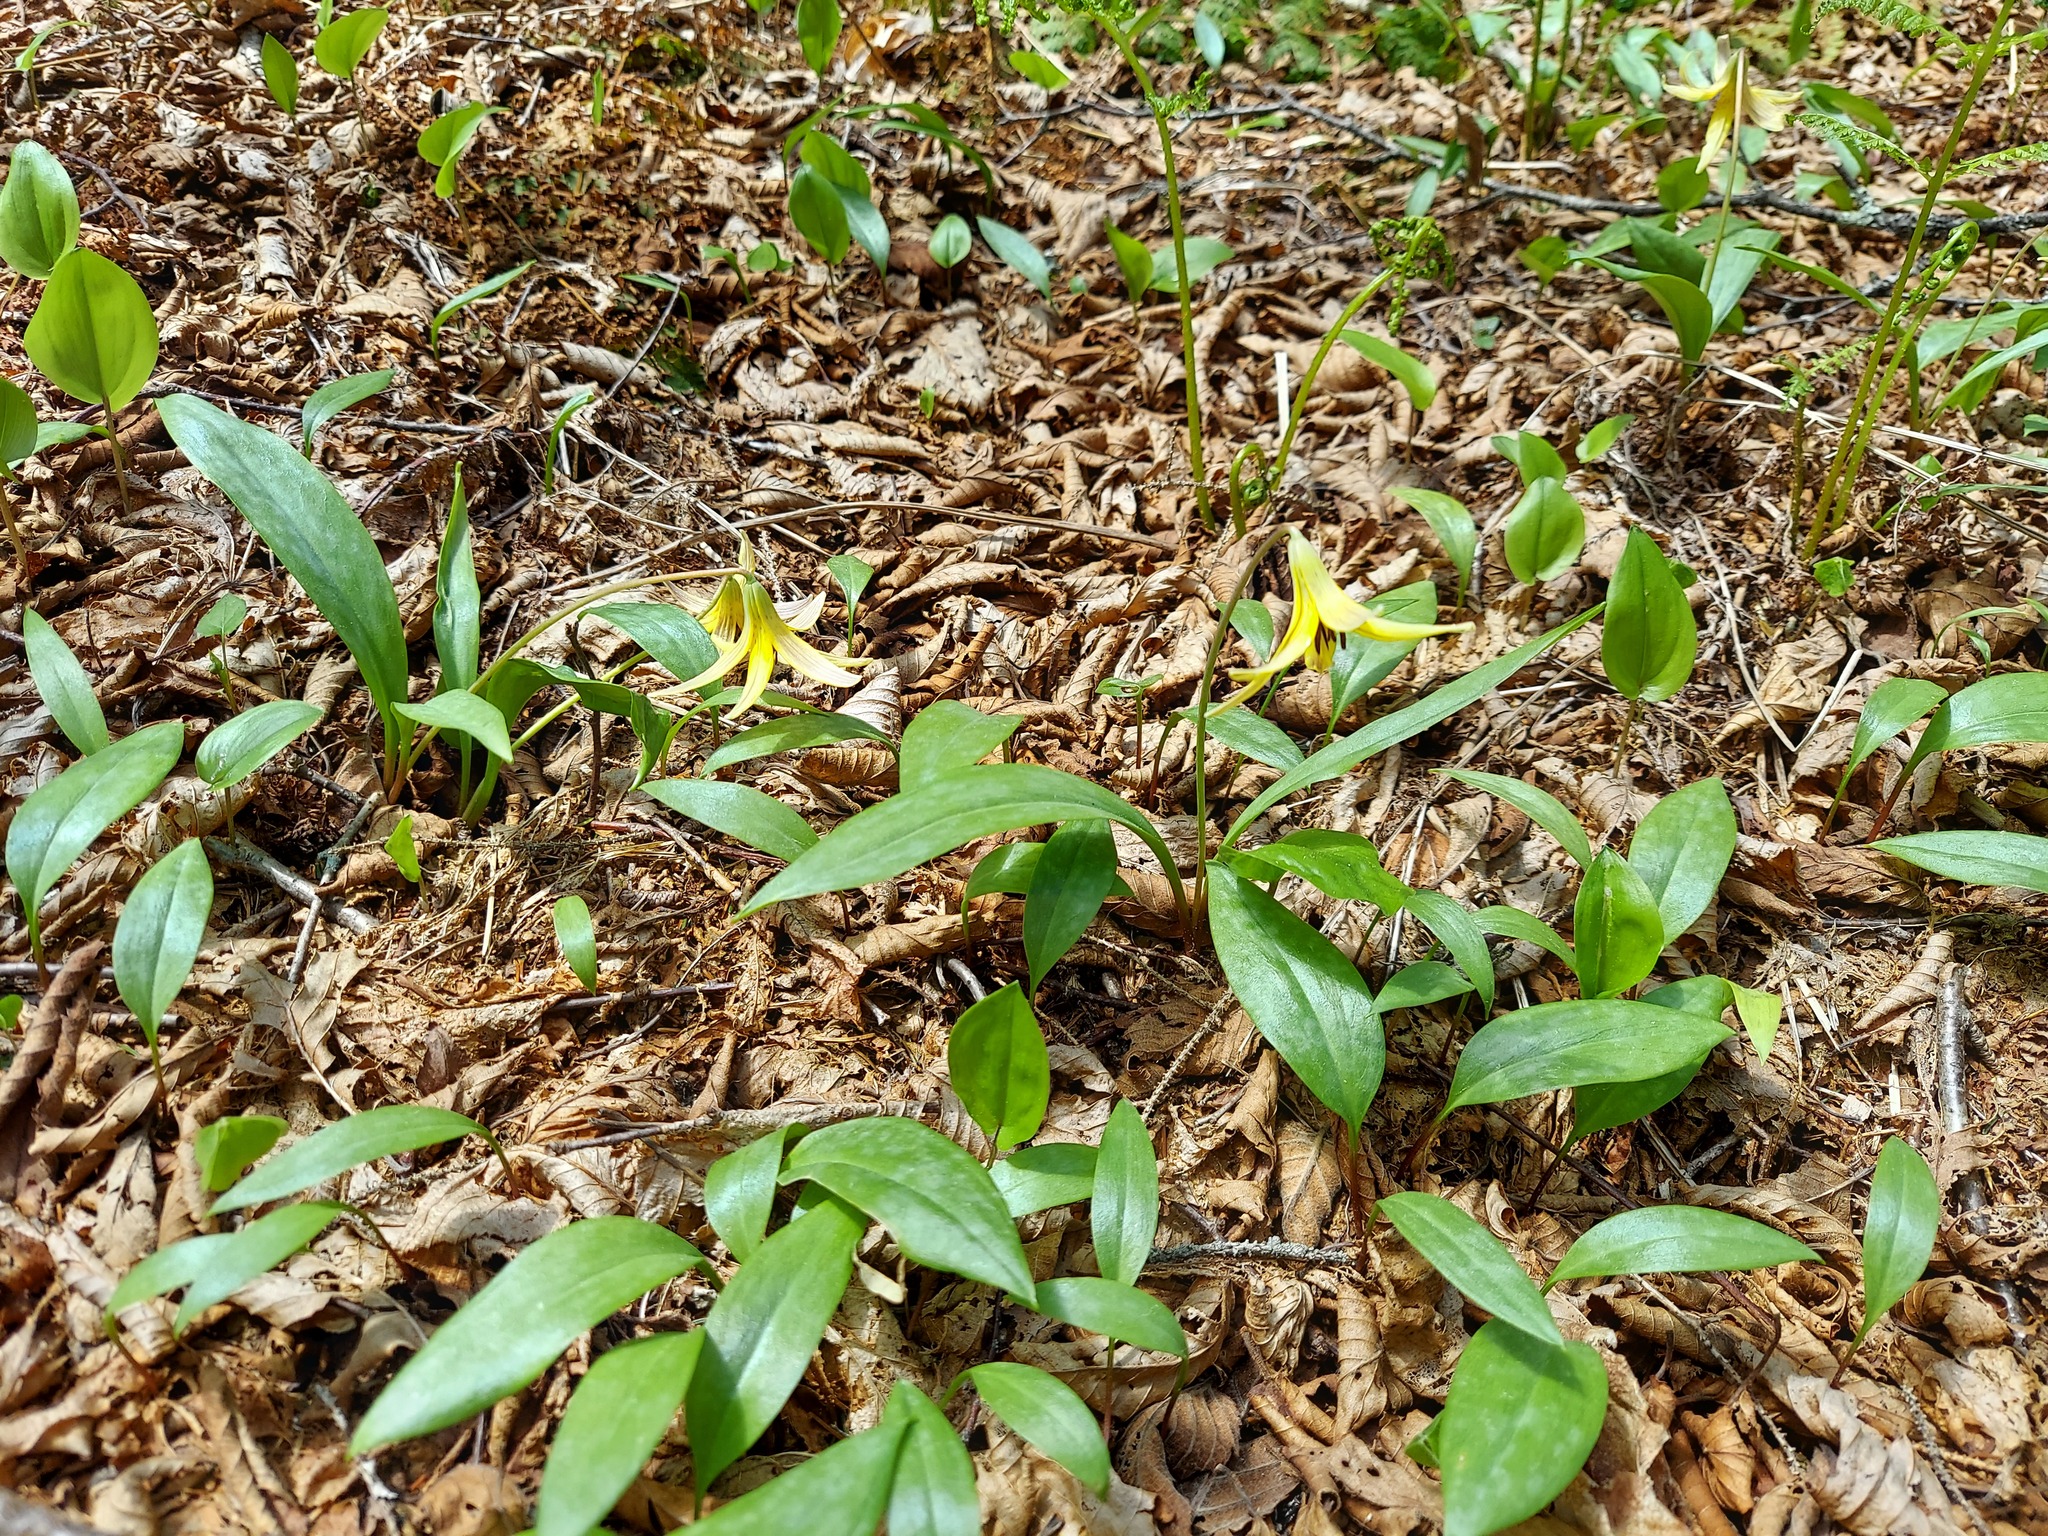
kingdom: Plantae
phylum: Tracheophyta
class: Liliopsida
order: Liliales
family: Liliaceae
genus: Erythronium
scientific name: Erythronium americanum
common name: Yellow adder's-tongue
